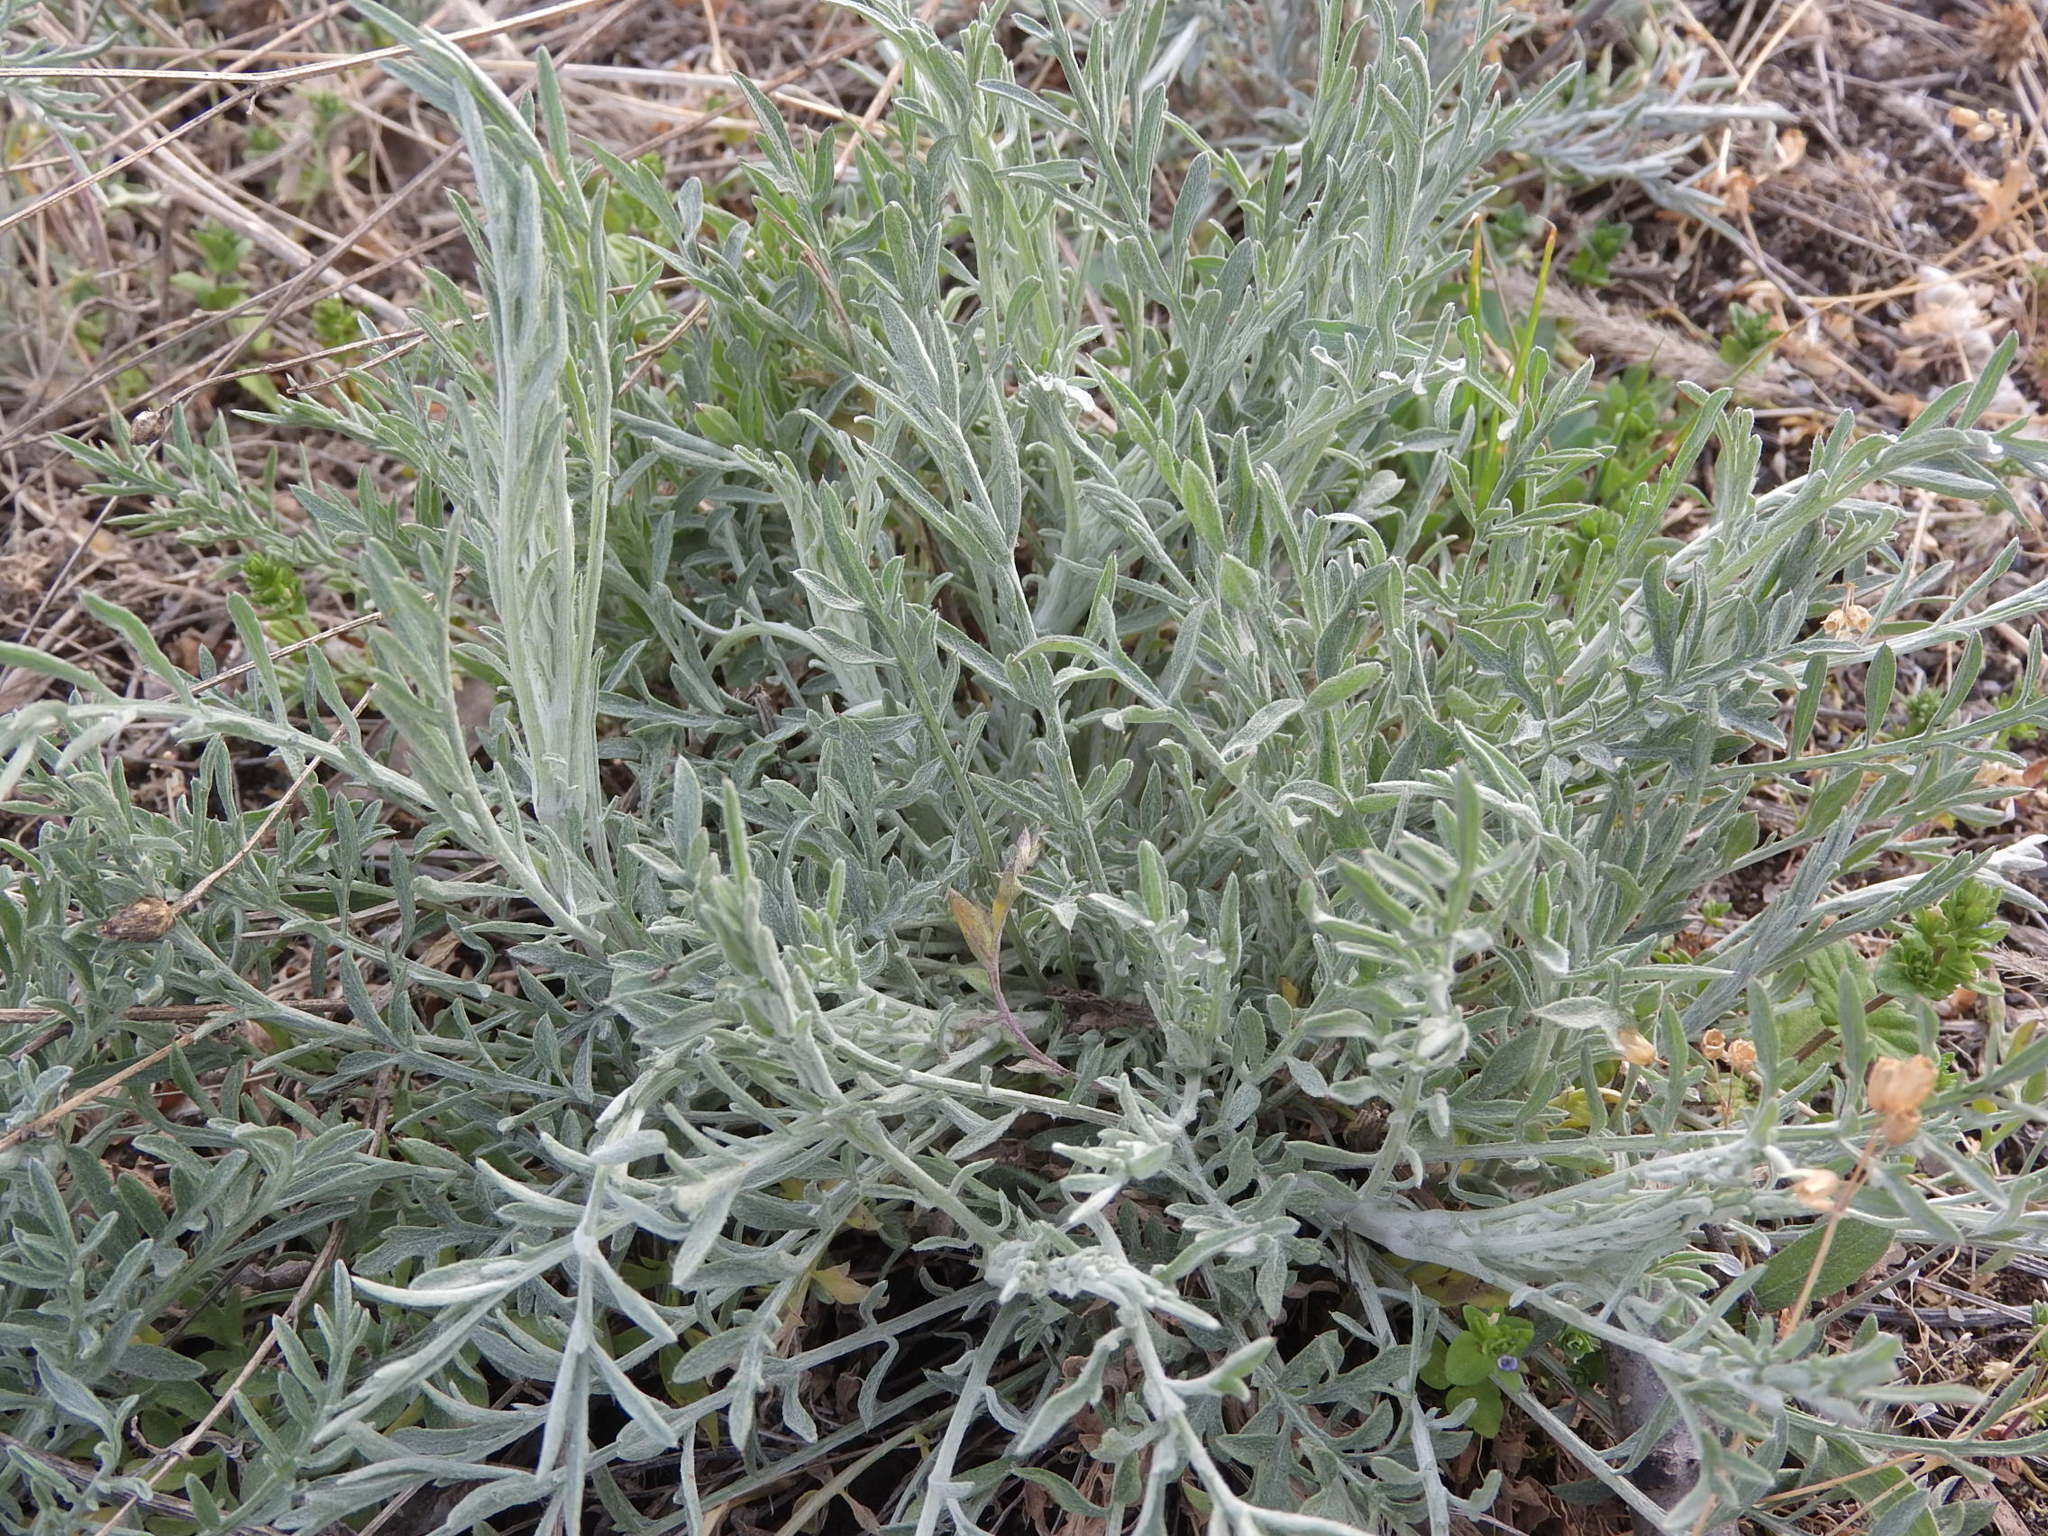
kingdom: Plantae
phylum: Tracheophyta
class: Magnoliopsida
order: Asterales
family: Asteraceae
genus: Centaurea
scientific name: Centaurea stoebe
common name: Spotted knapweed
